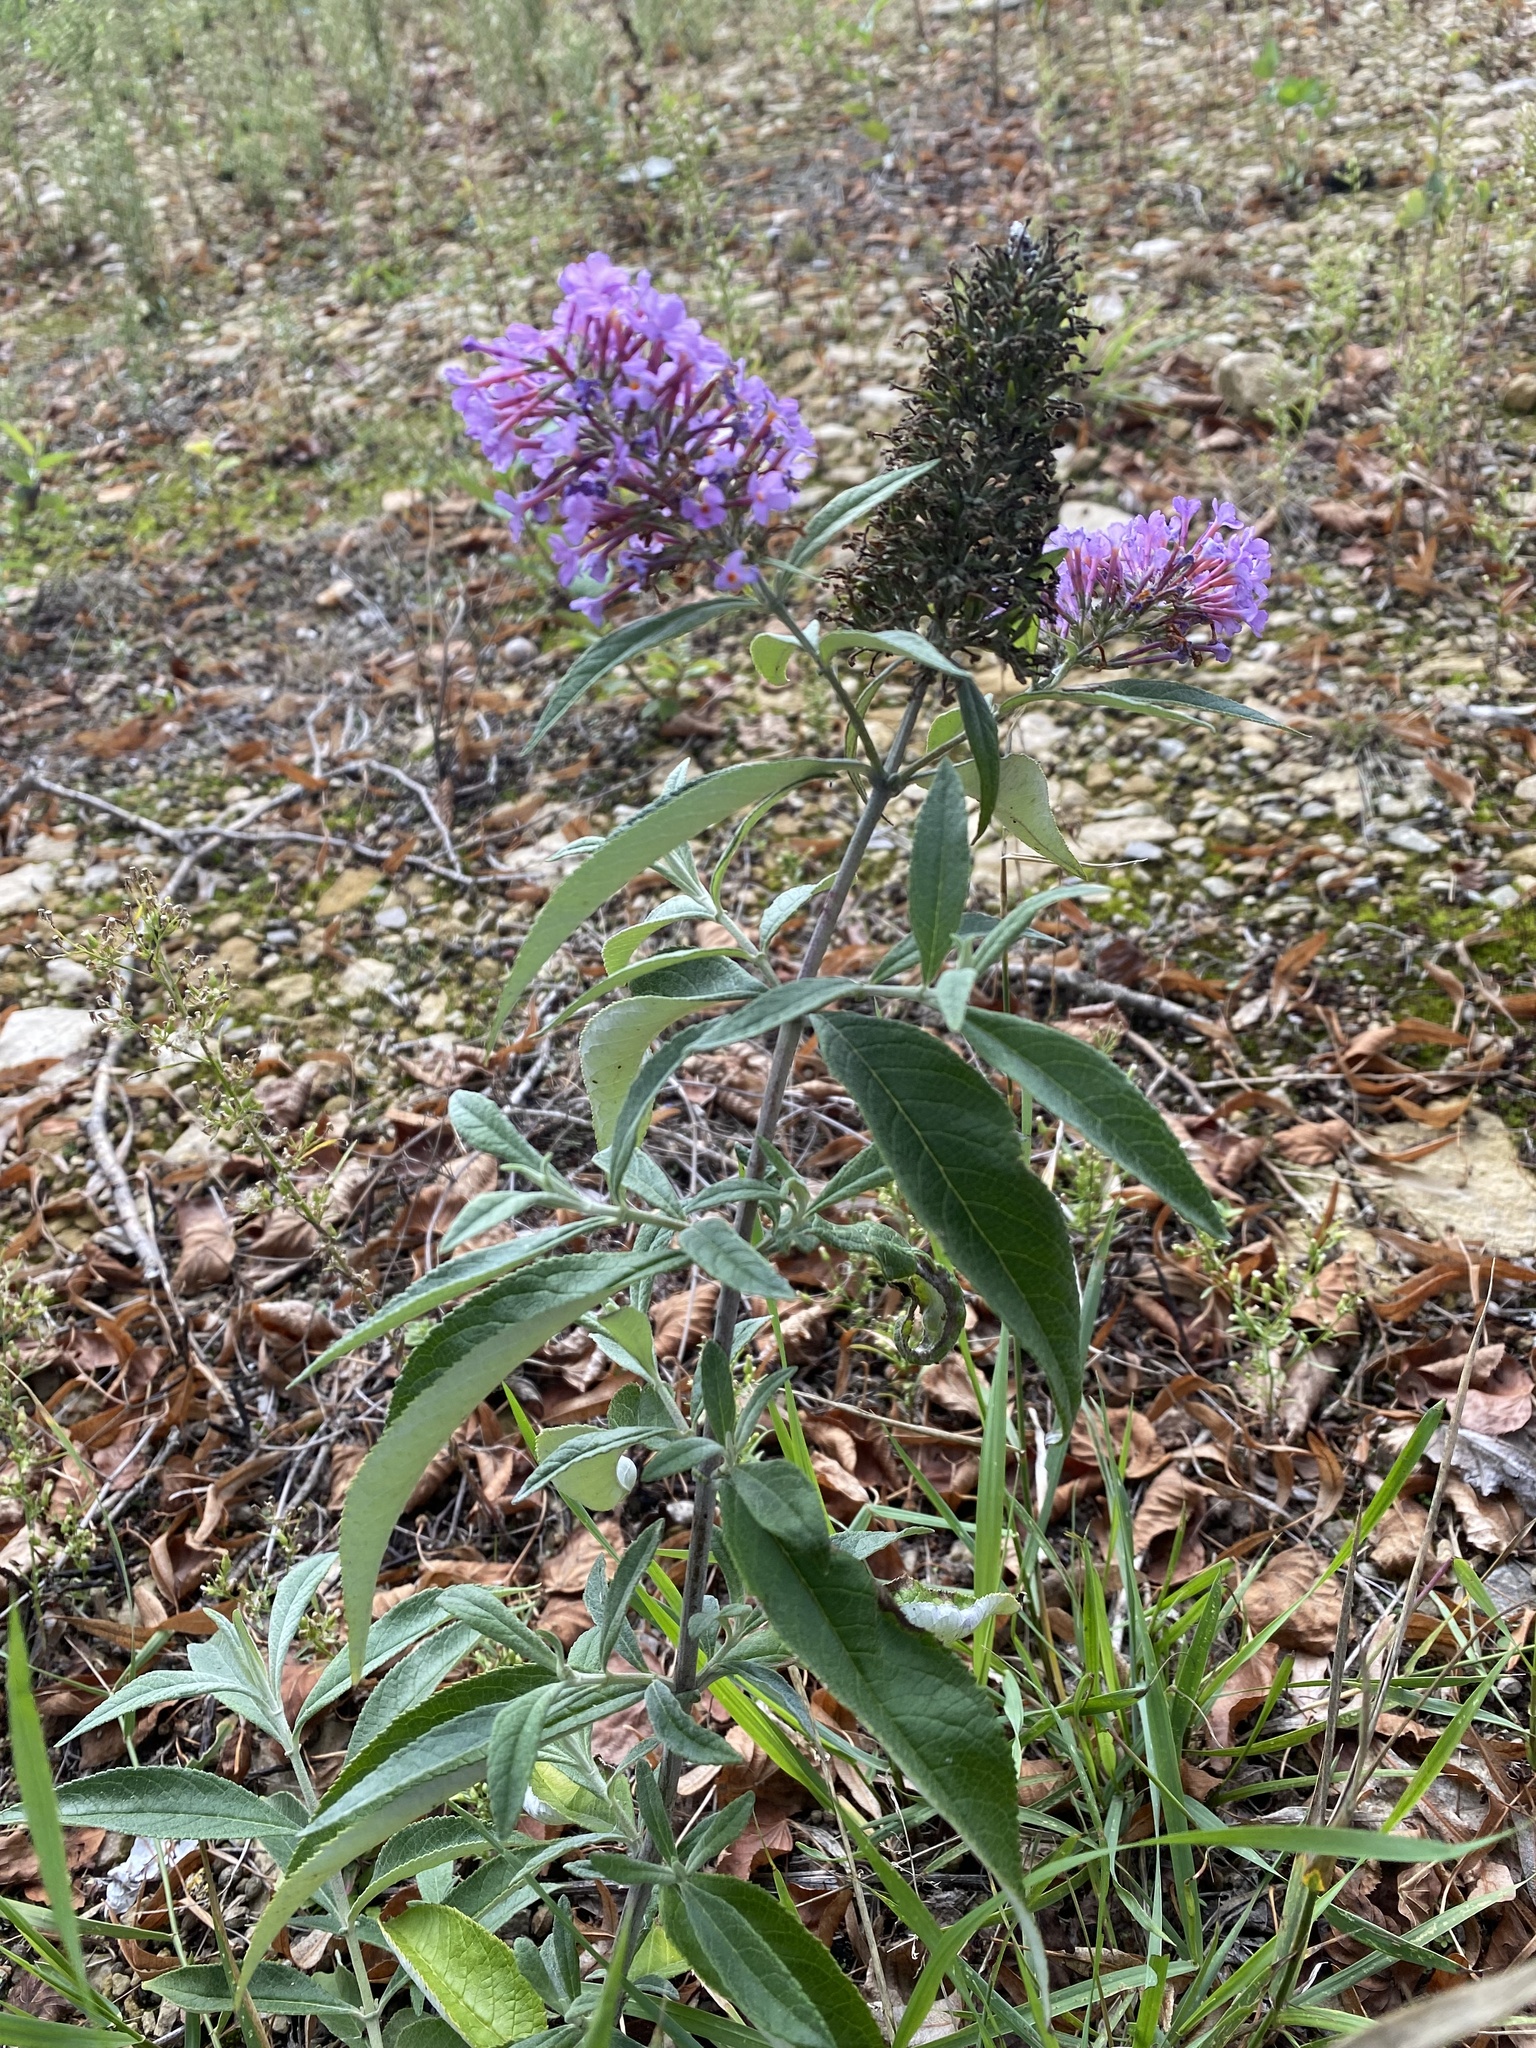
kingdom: Plantae
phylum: Tracheophyta
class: Magnoliopsida
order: Lamiales
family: Scrophulariaceae
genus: Buddleja
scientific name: Buddleja davidii
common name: Butterfly-bush
